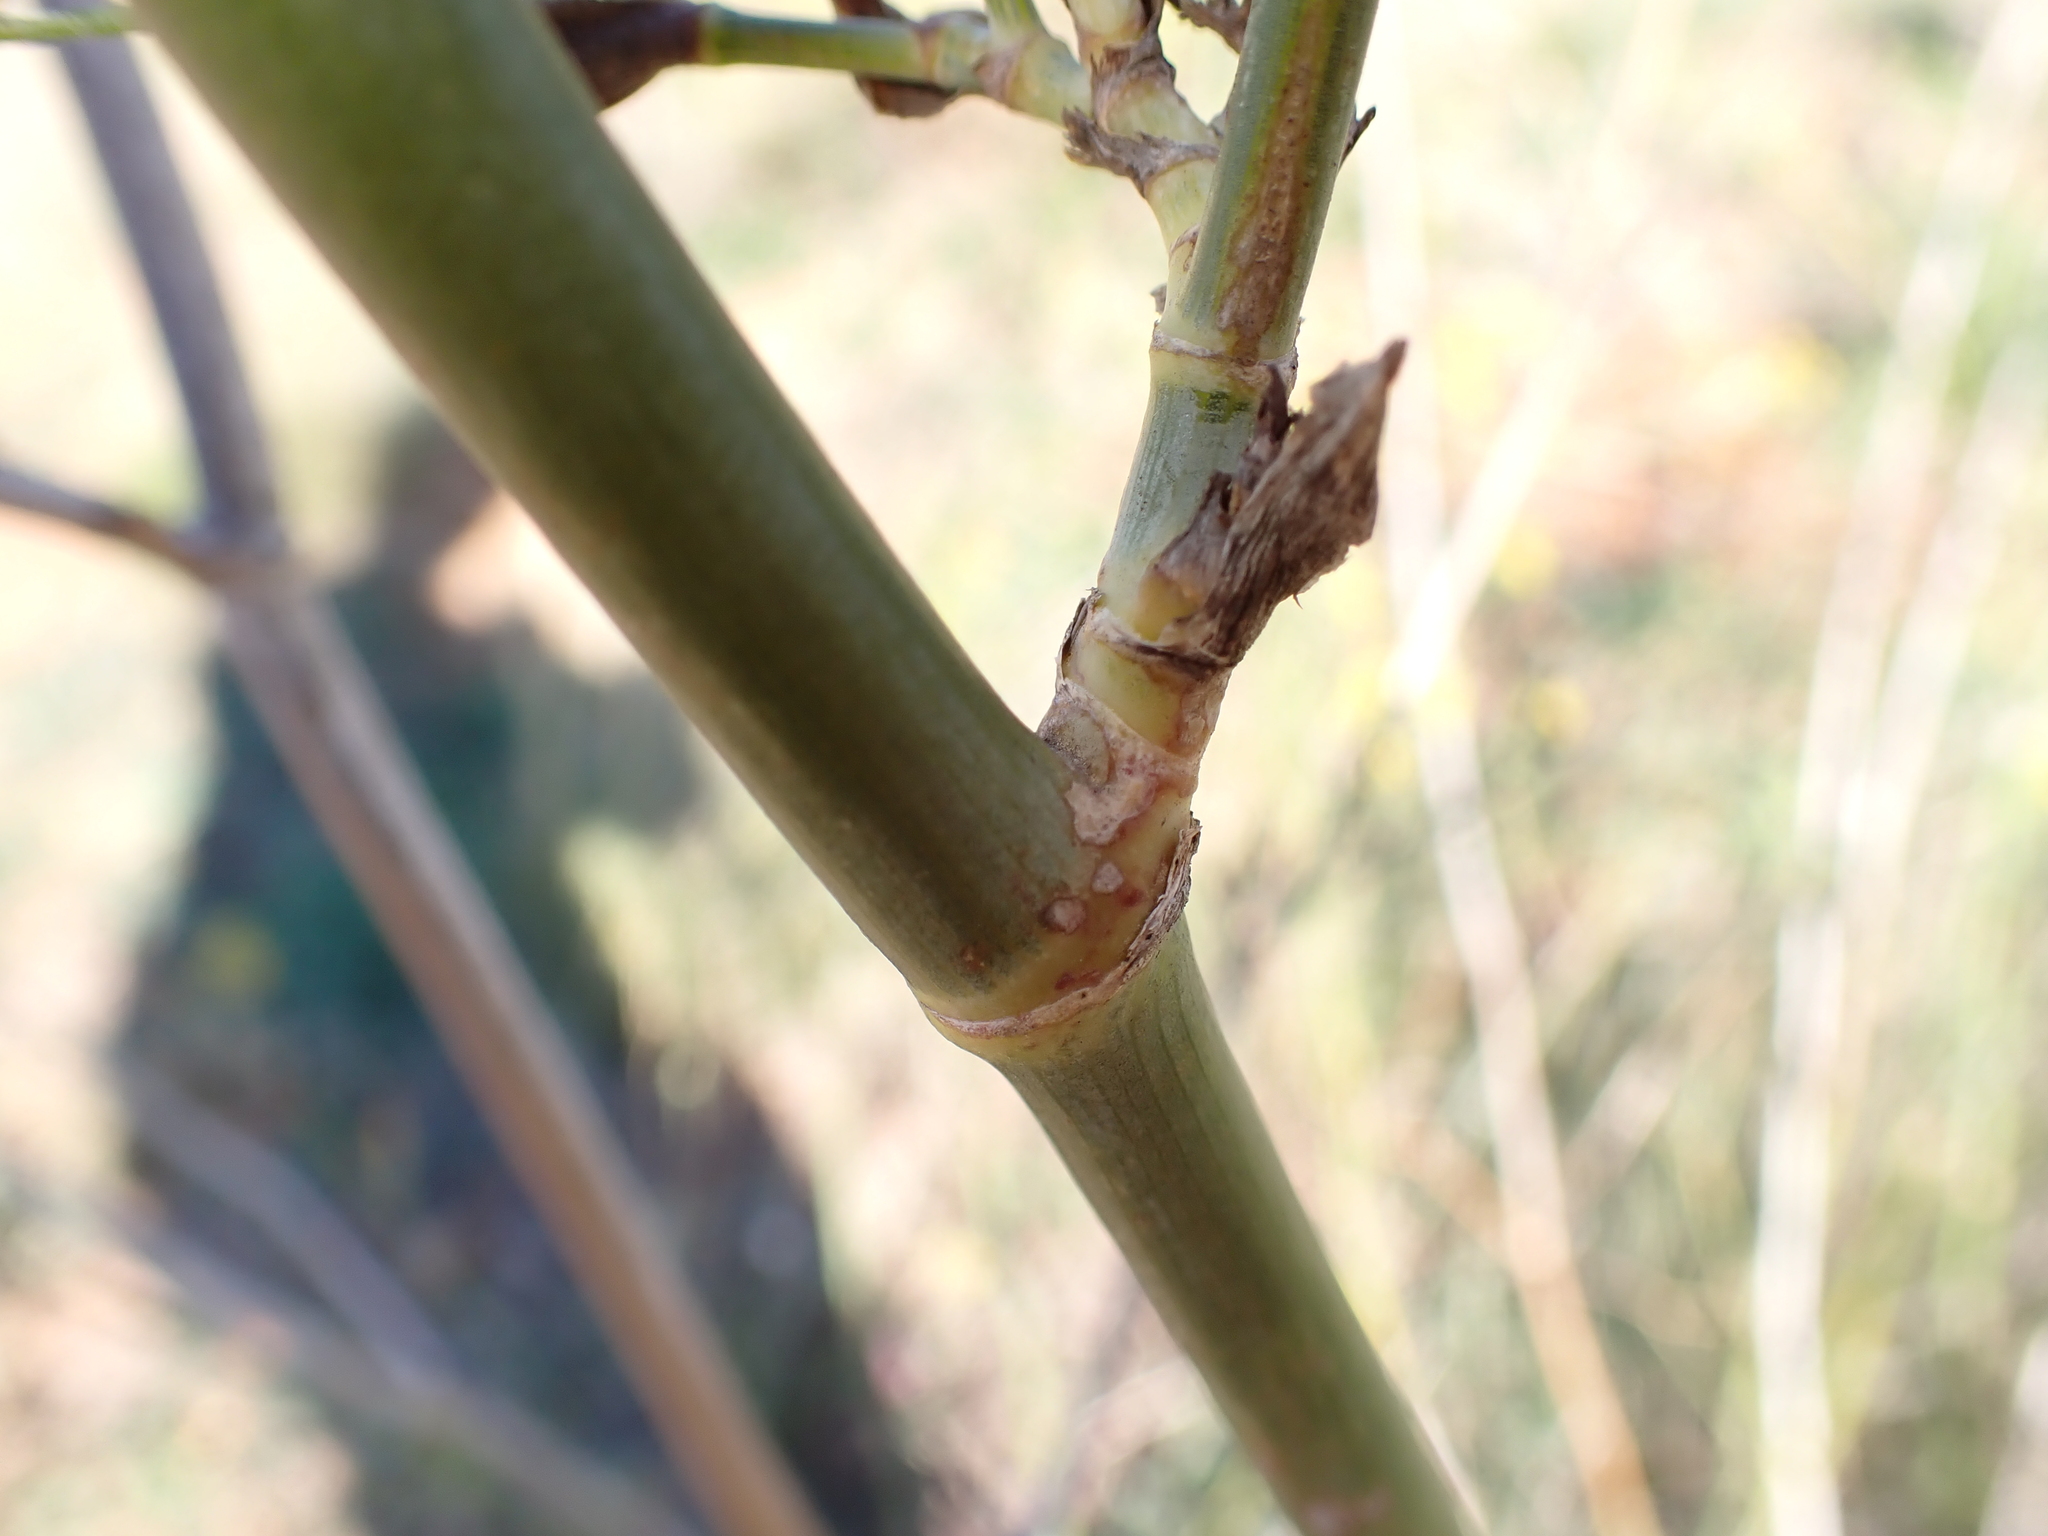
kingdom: Plantae
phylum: Tracheophyta
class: Magnoliopsida
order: Apiales
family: Apiaceae
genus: Foeniculum
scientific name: Foeniculum vulgare
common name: Fennel
